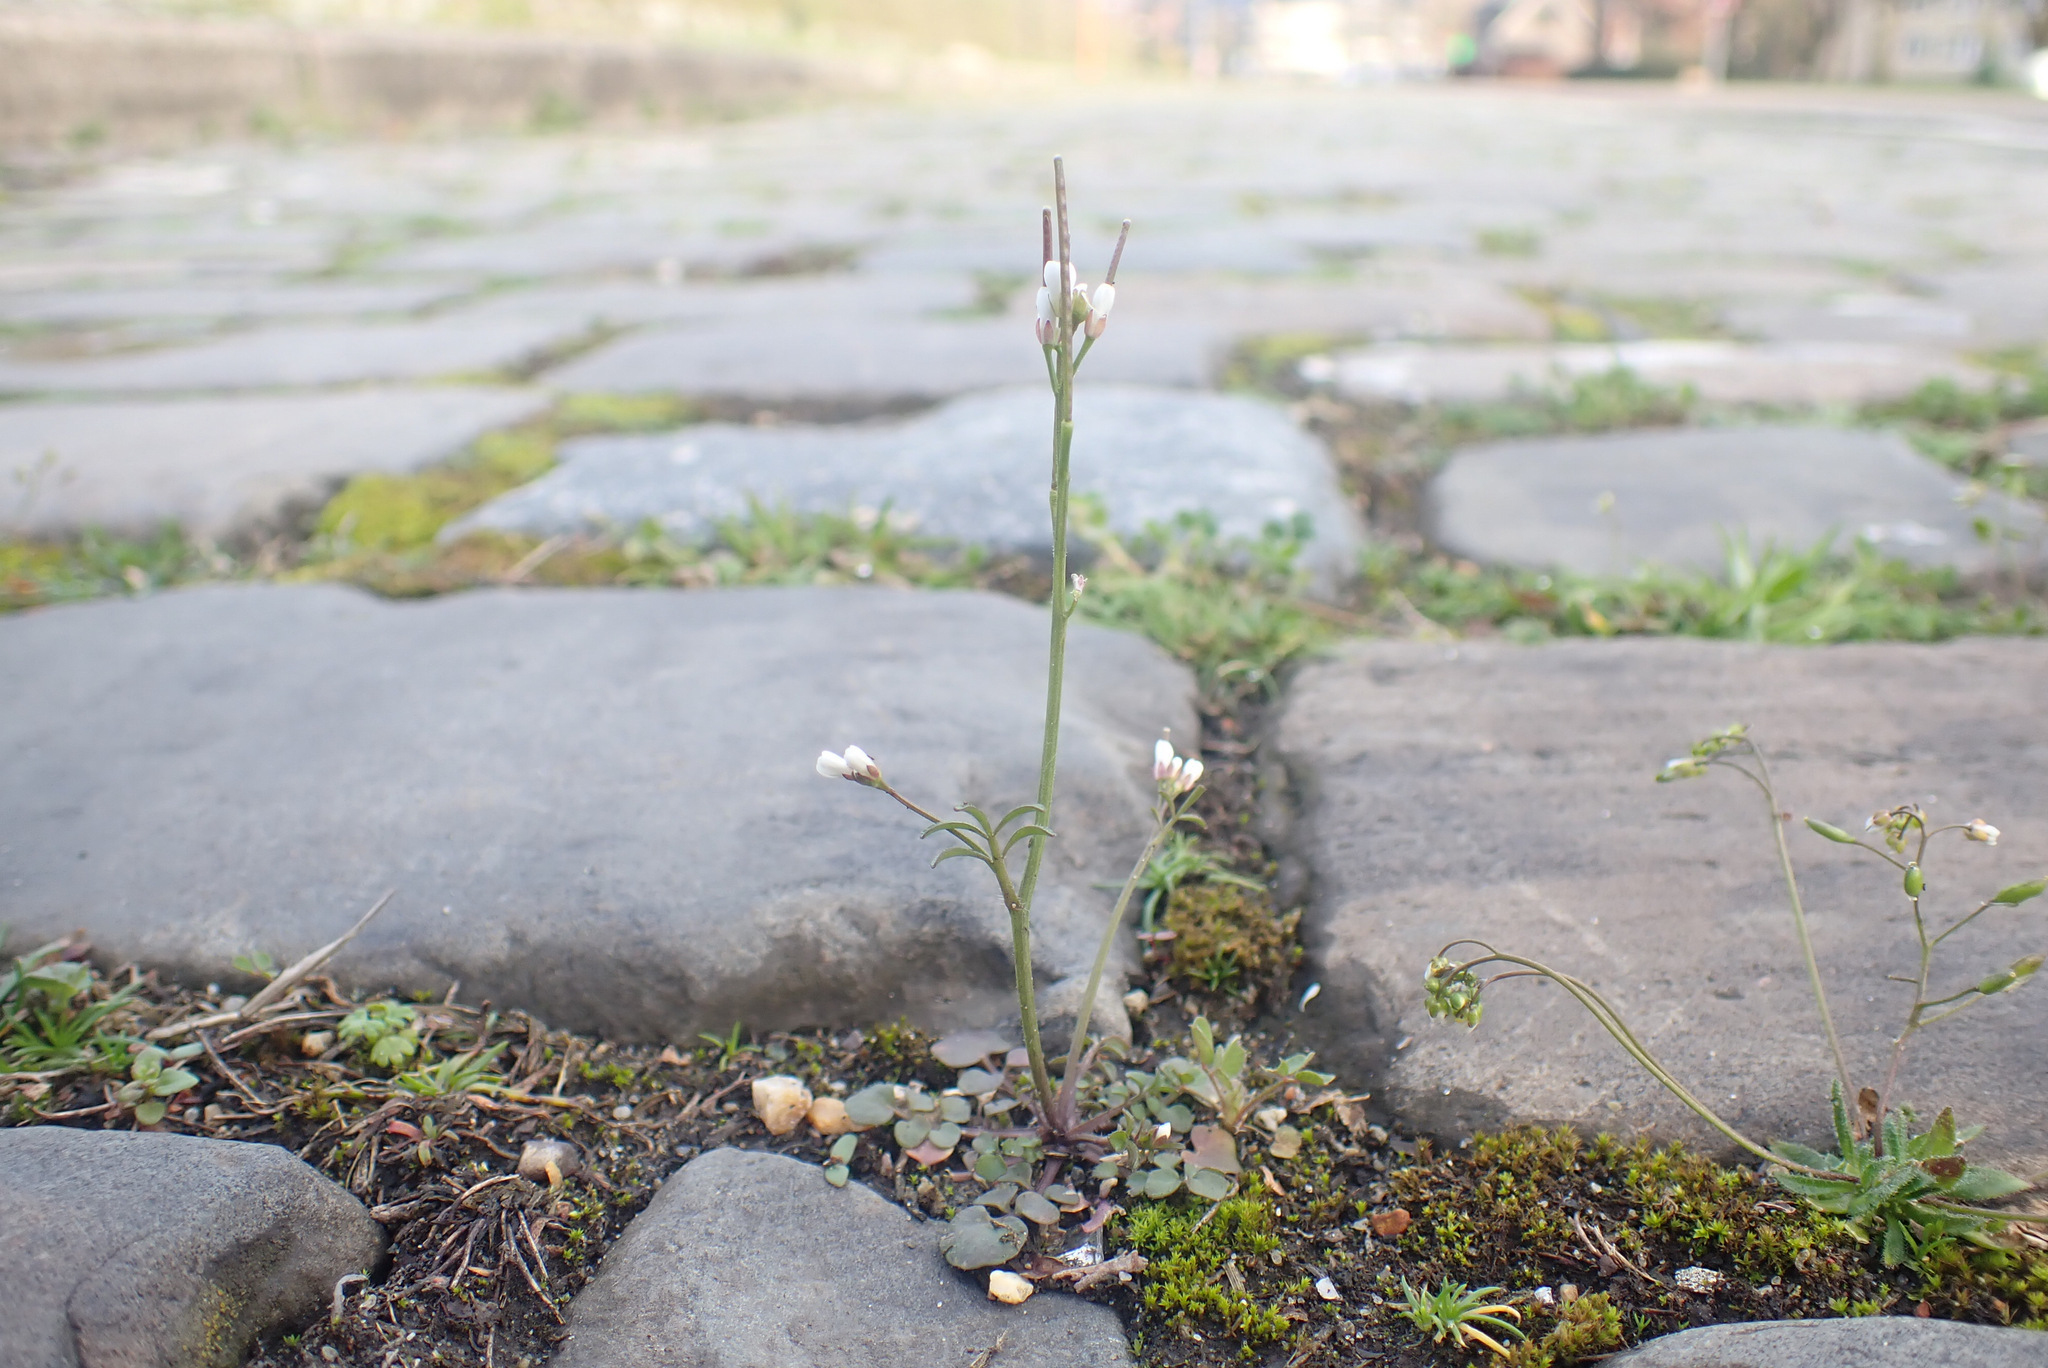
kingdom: Plantae
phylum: Tracheophyta
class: Magnoliopsida
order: Brassicales
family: Brassicaceae
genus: Cardamine
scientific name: Cardamine hirsuta
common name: Hairy bittercress
